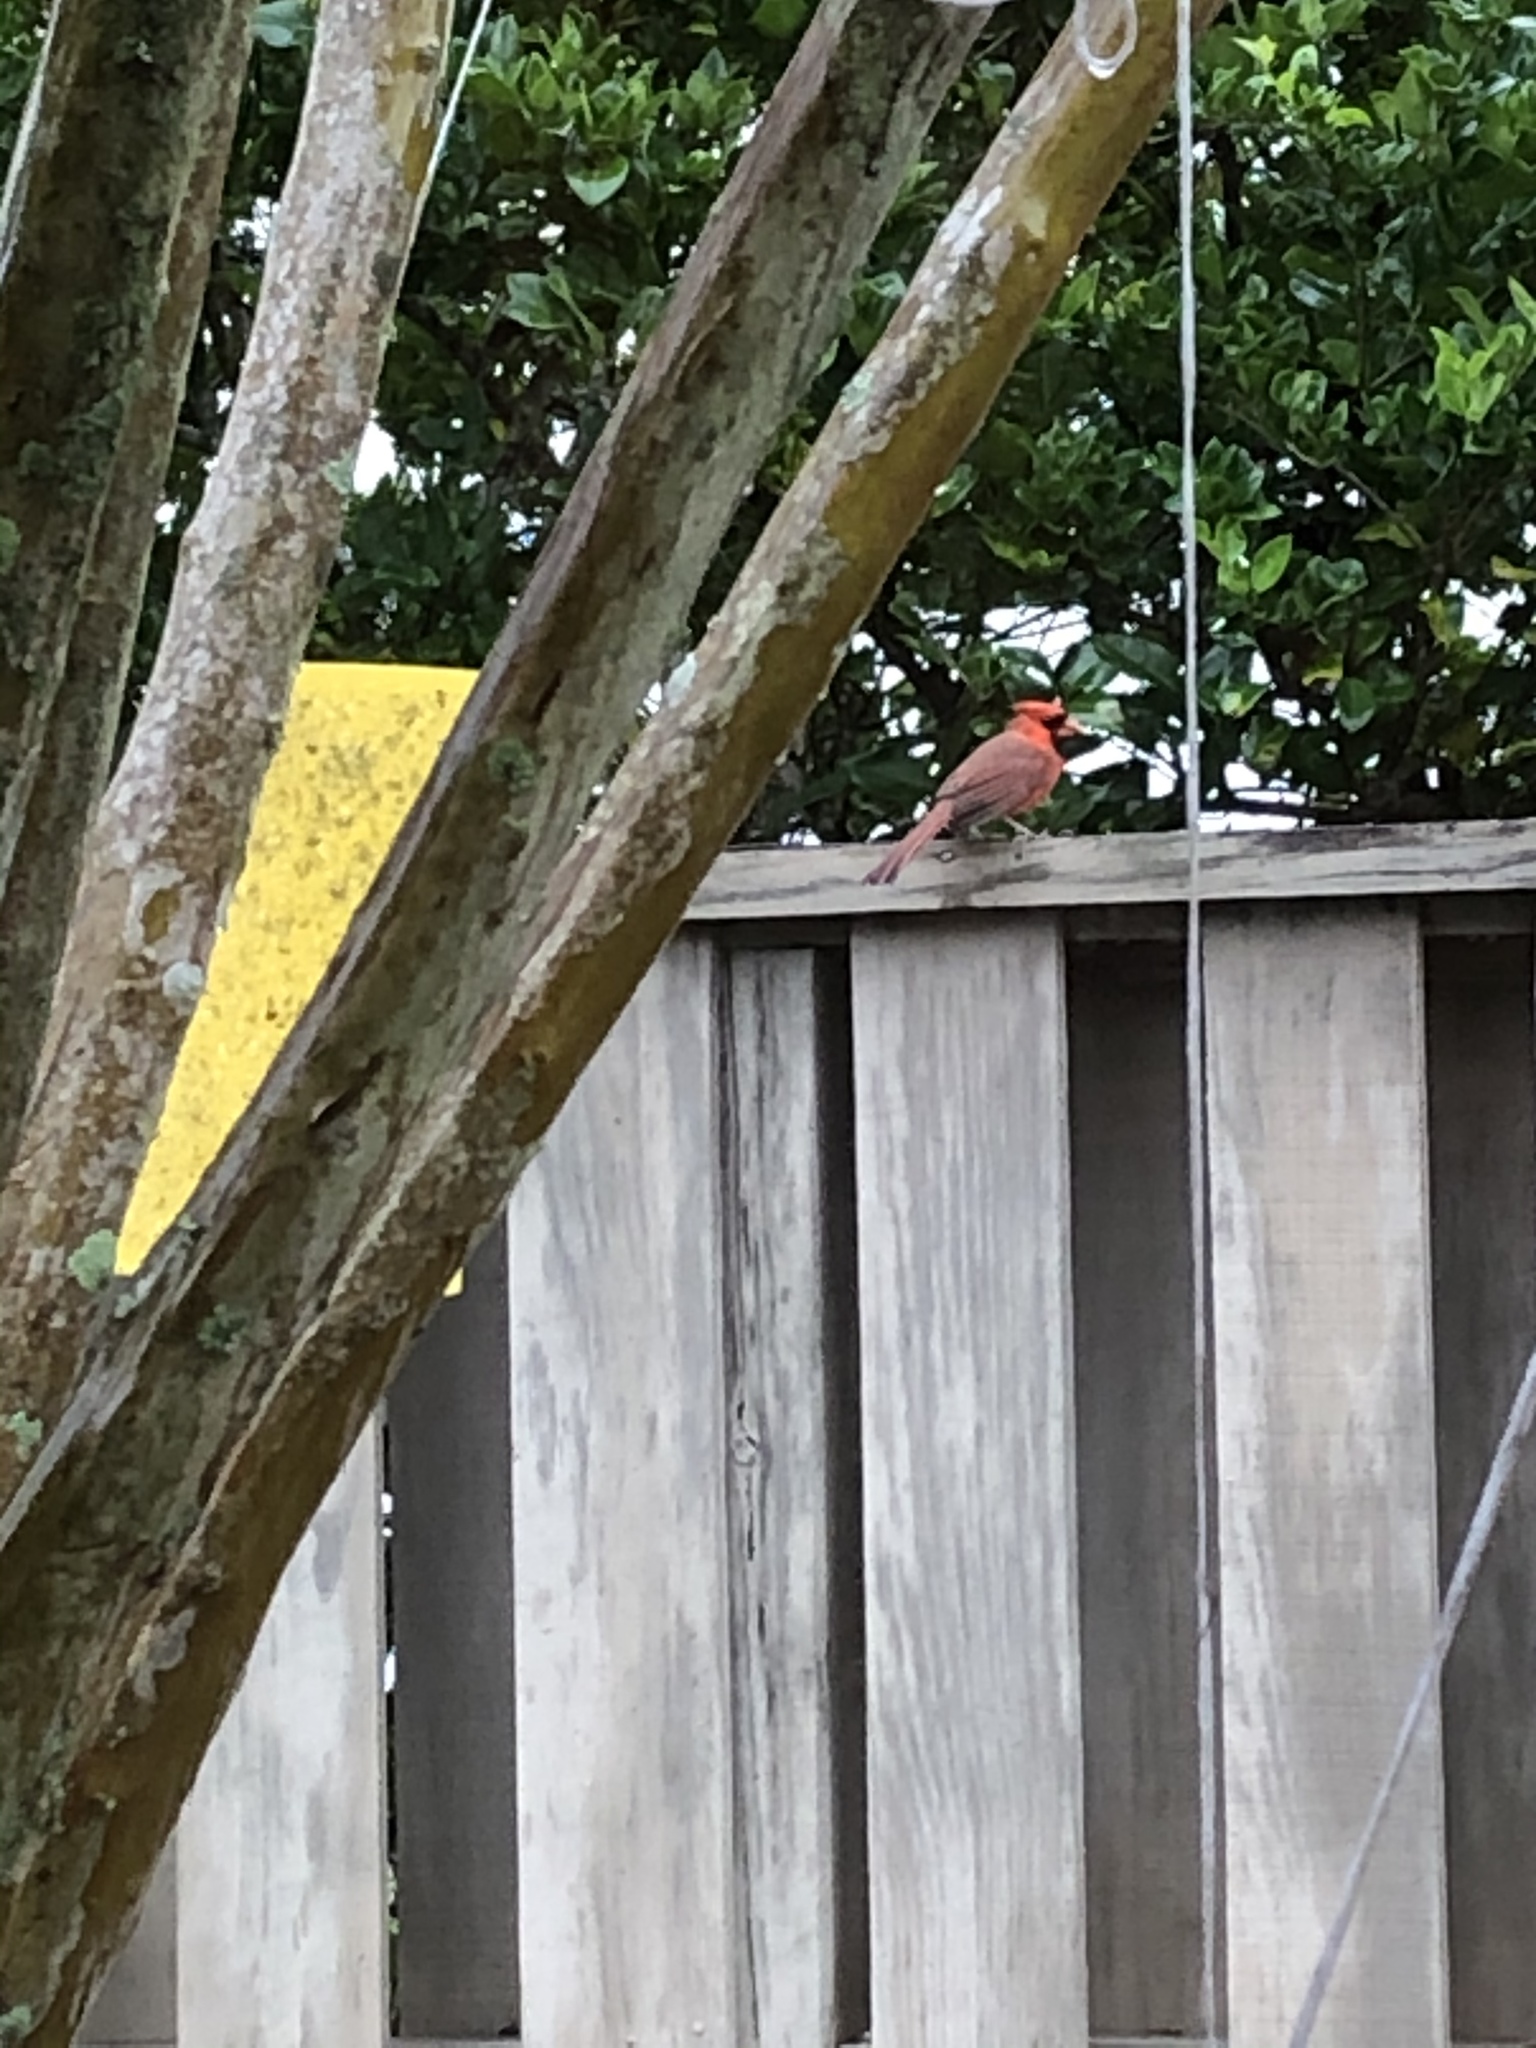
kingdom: Animalia
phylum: Chordata
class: Aves
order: Passeriformes
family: Cardinalidae
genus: Cardinalis
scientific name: Cardinalis cardinalis
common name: Northern cardinal
